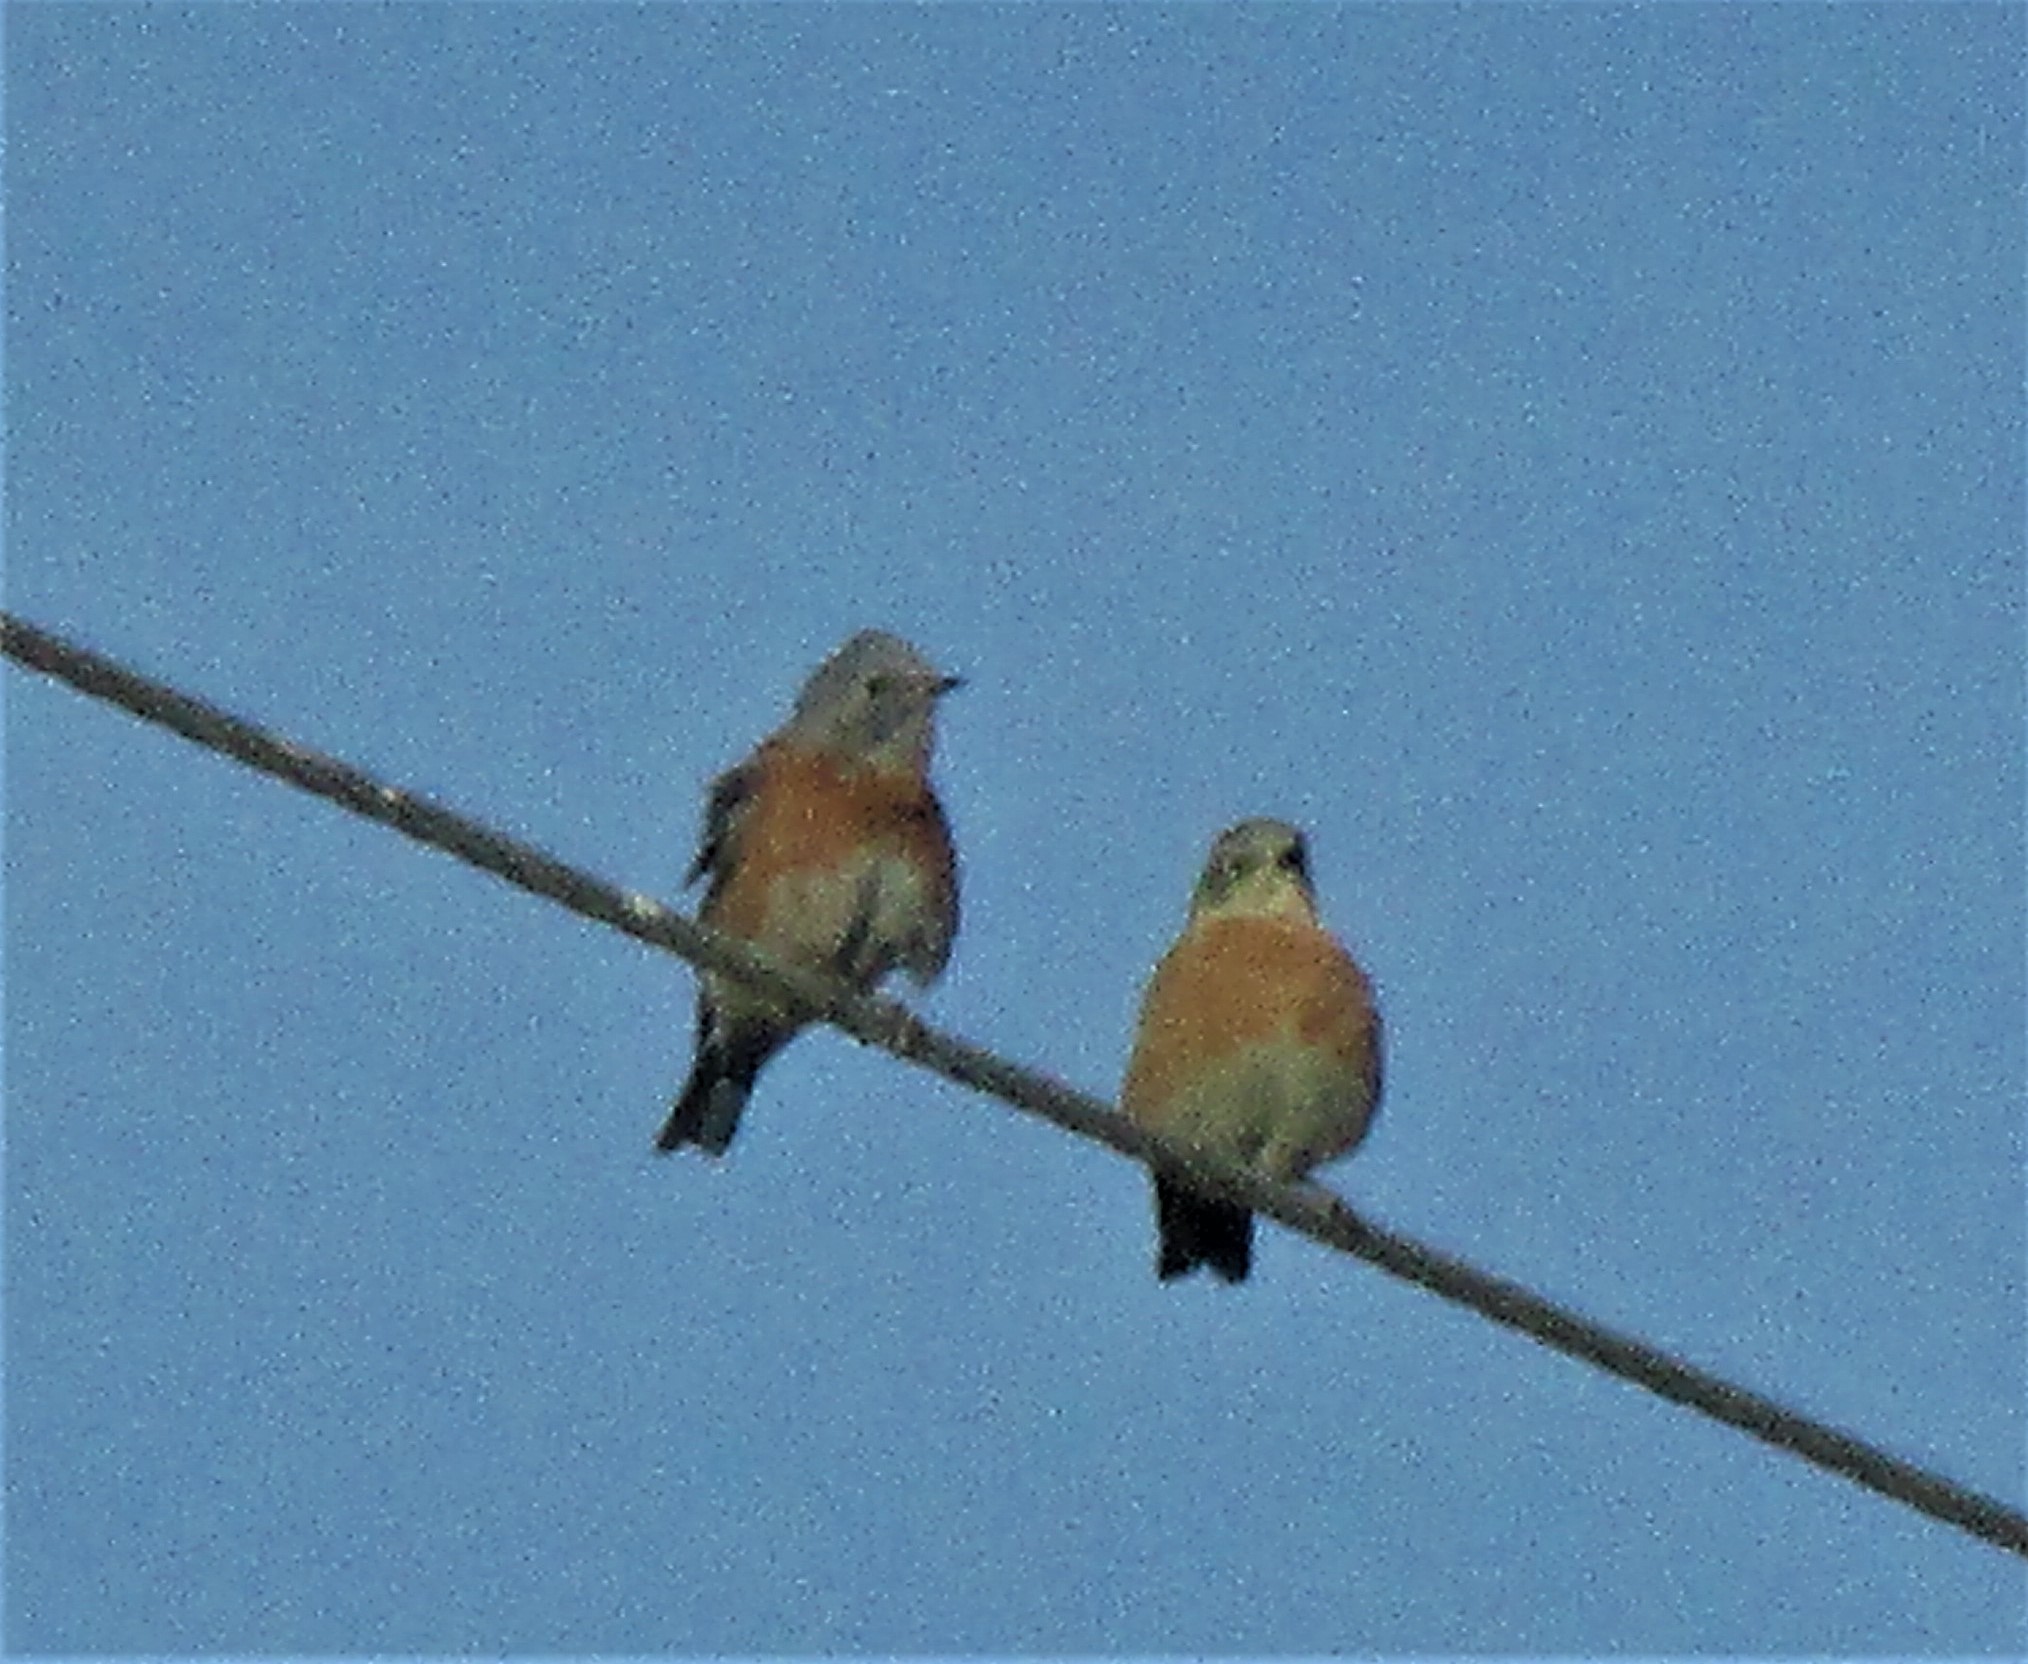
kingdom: Animalia
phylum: Chordata
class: Aves
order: Passeriformes
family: Turdidae
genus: Sialia
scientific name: Sialia mexicana
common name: Western bluebird
